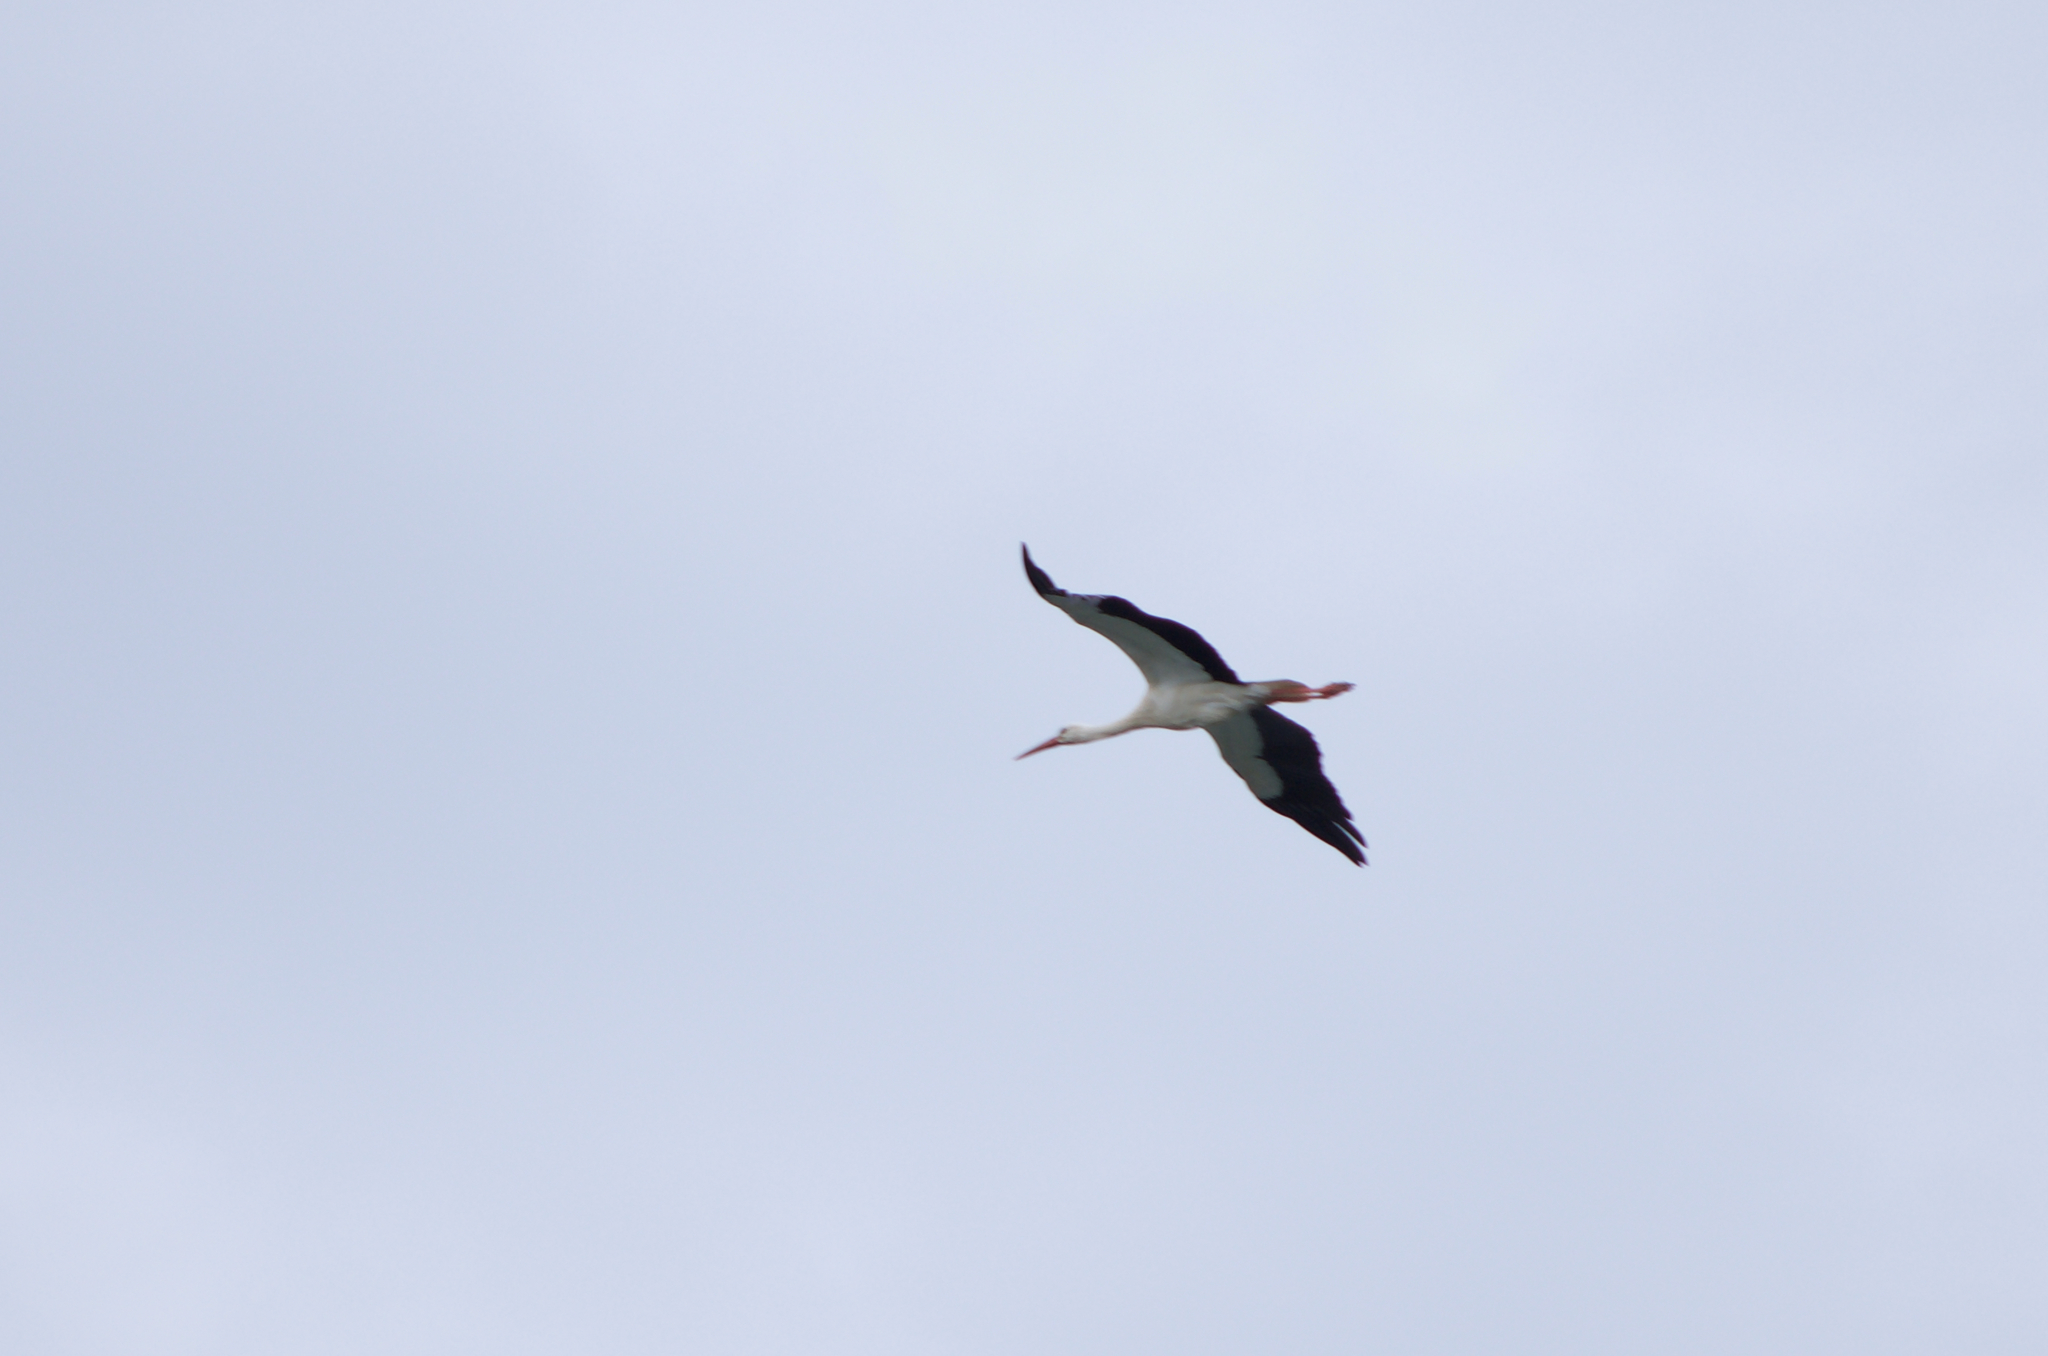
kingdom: Animalia
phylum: Chordata
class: Aves
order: Ciconiiformes
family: Ciconiidae
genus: Ciconia
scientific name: Ciconia ciconia
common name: White stork
